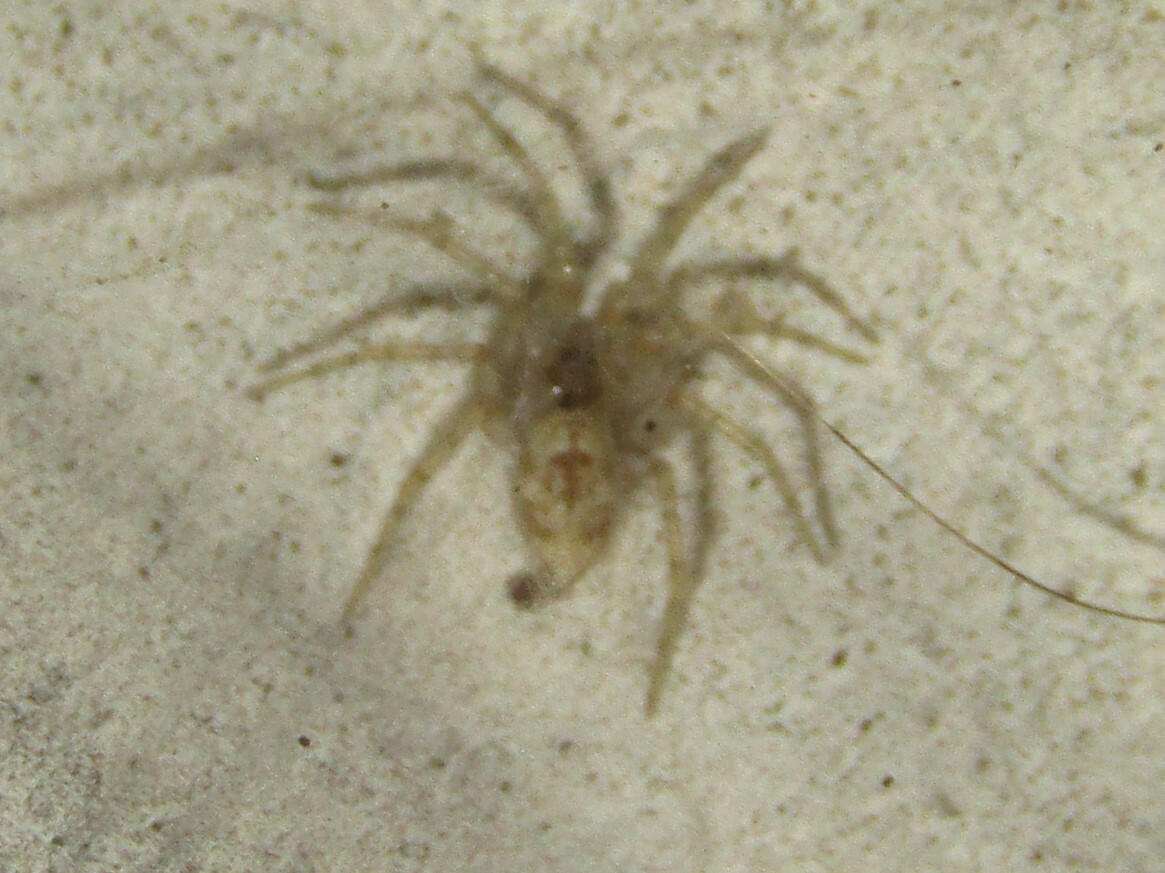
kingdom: Animalia
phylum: Arthropoda
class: Arachnida
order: Araneae
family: Oecobiidae
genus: Oecobius
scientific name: Oecobius
